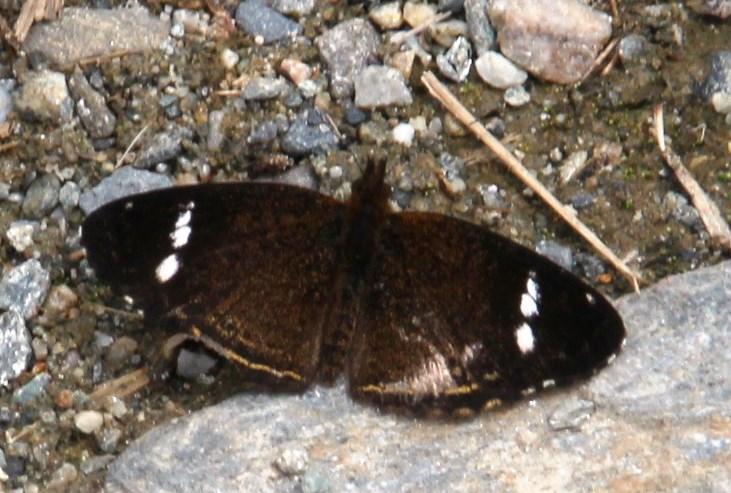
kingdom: Animalia
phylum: Arthropoda
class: Insecta
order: Lepidoptera
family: Nymphalidae
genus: Telenassa
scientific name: Telenassa delphia
